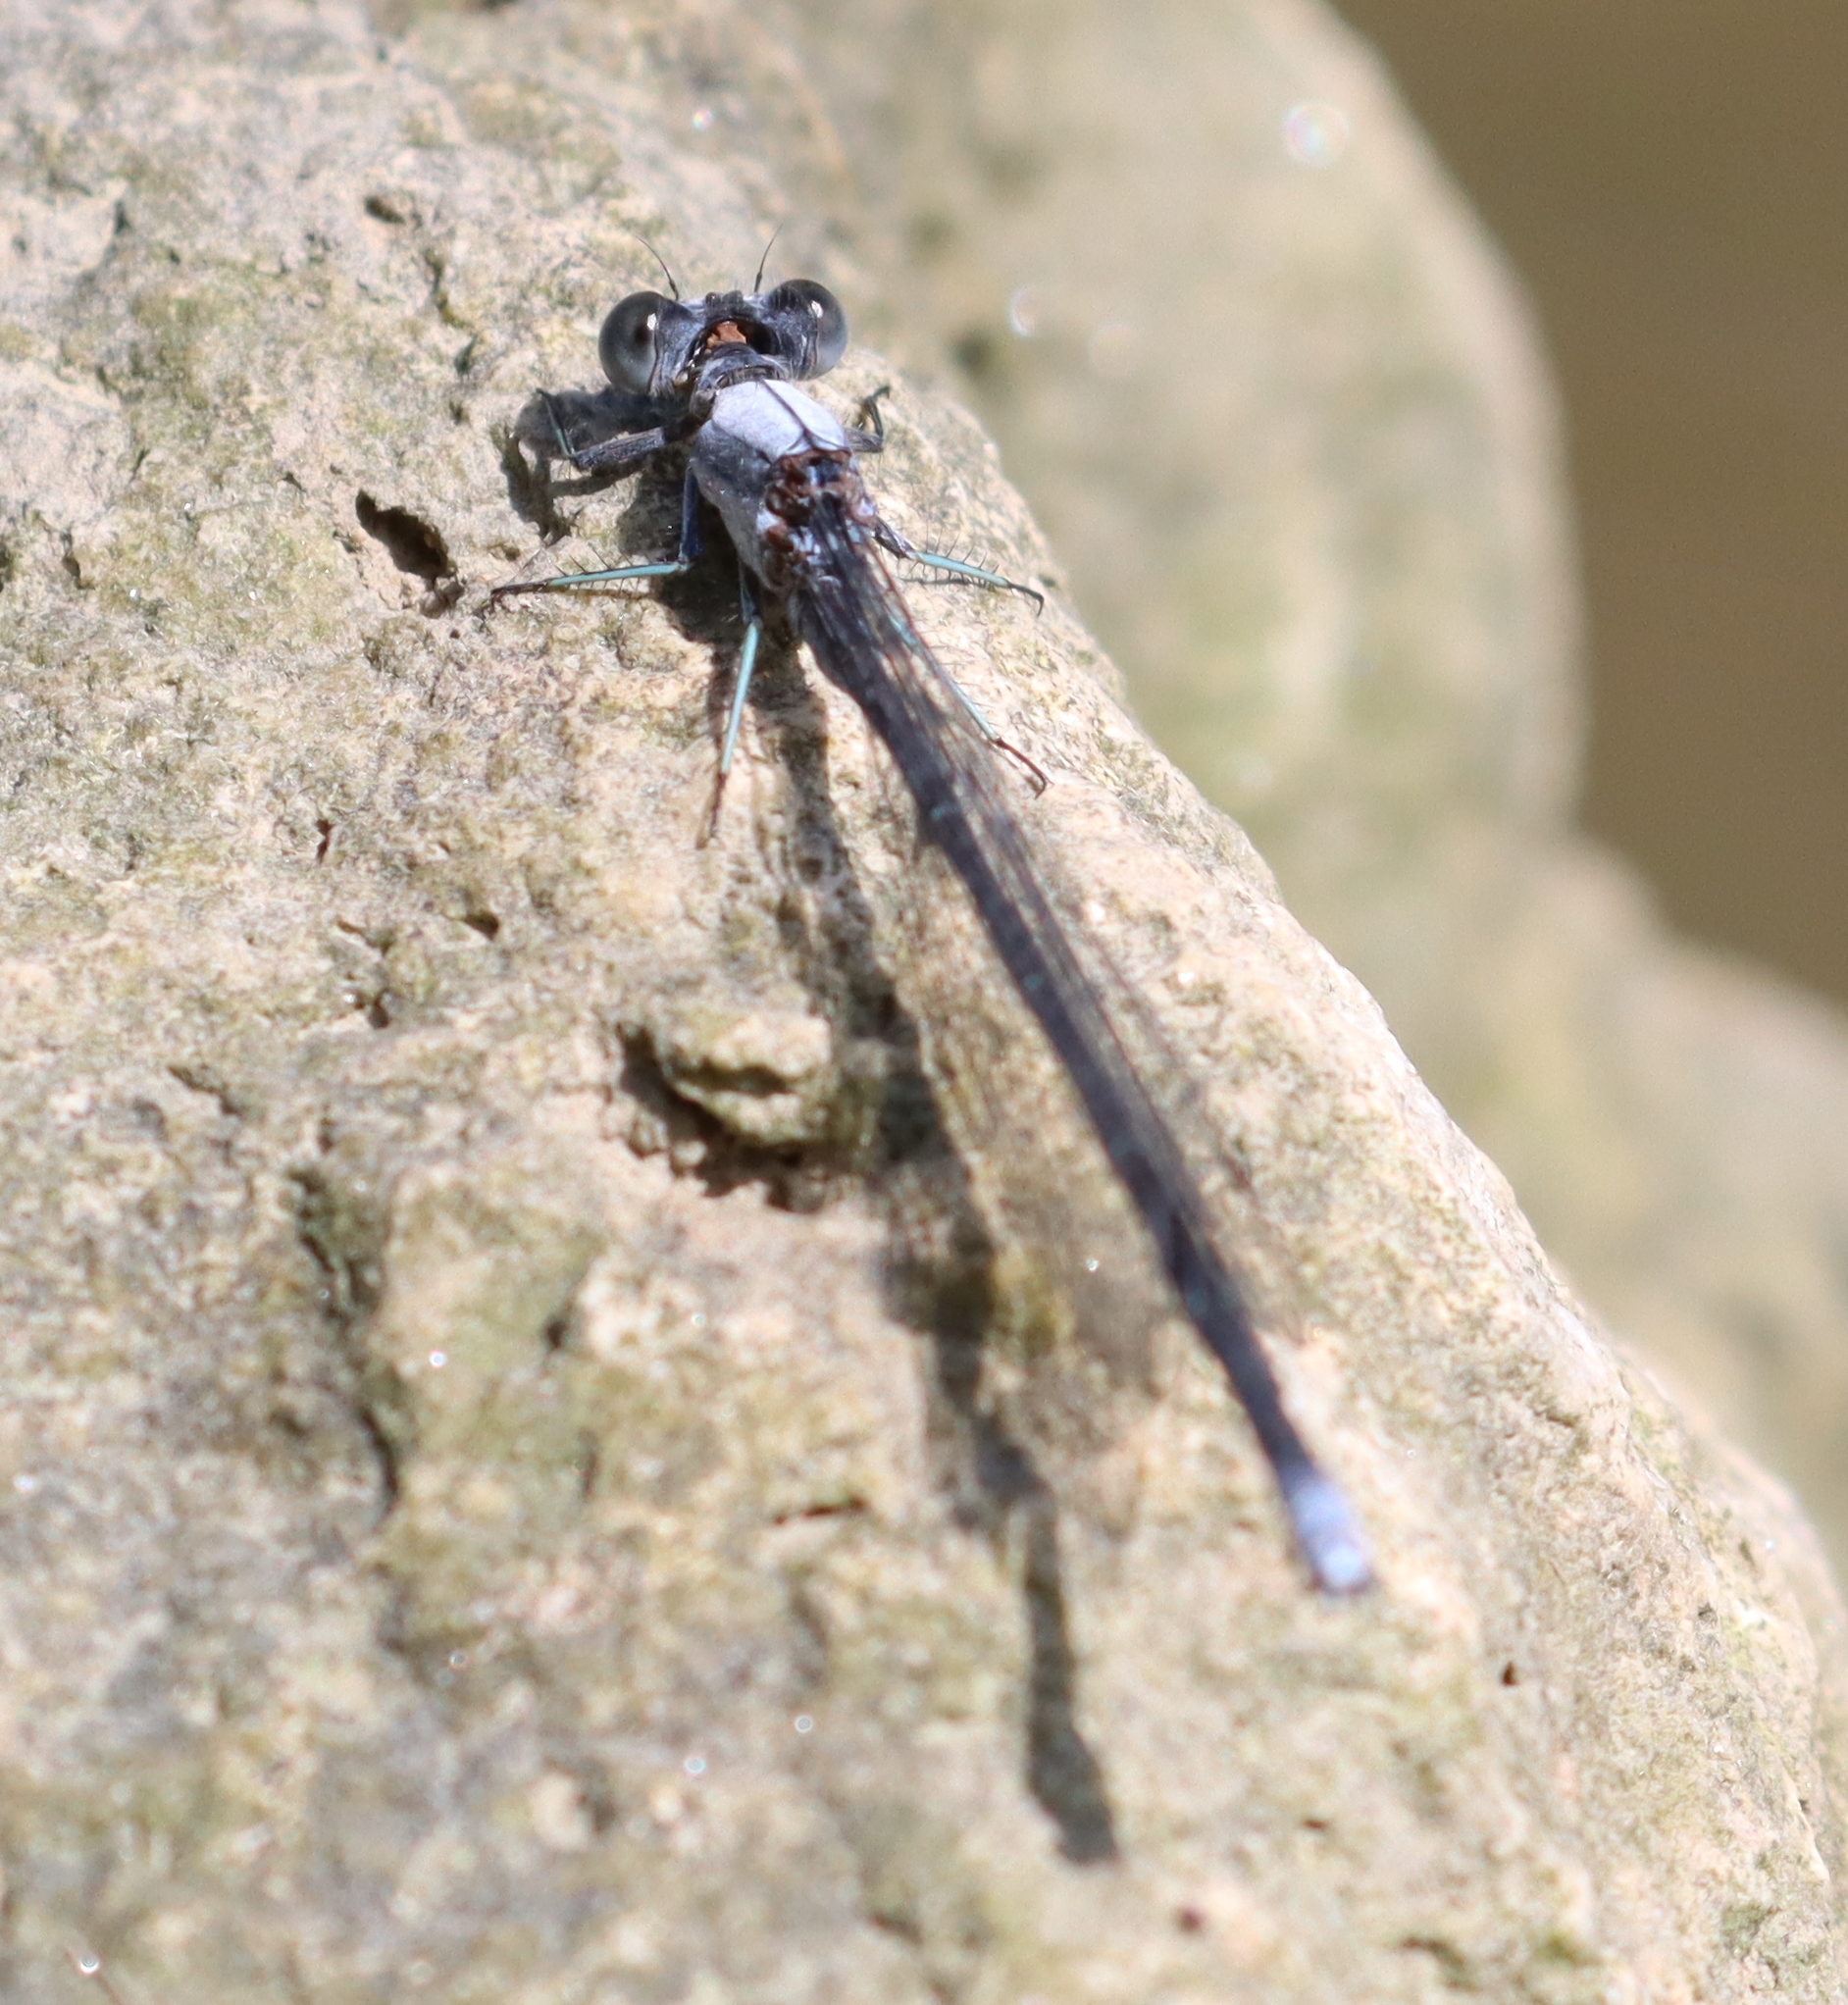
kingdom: Animalia
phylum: Arthropoda
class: Insecta
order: Odonata
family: Coenagrionidae
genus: Argia
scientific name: Argia moesta
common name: Powdered dancer
